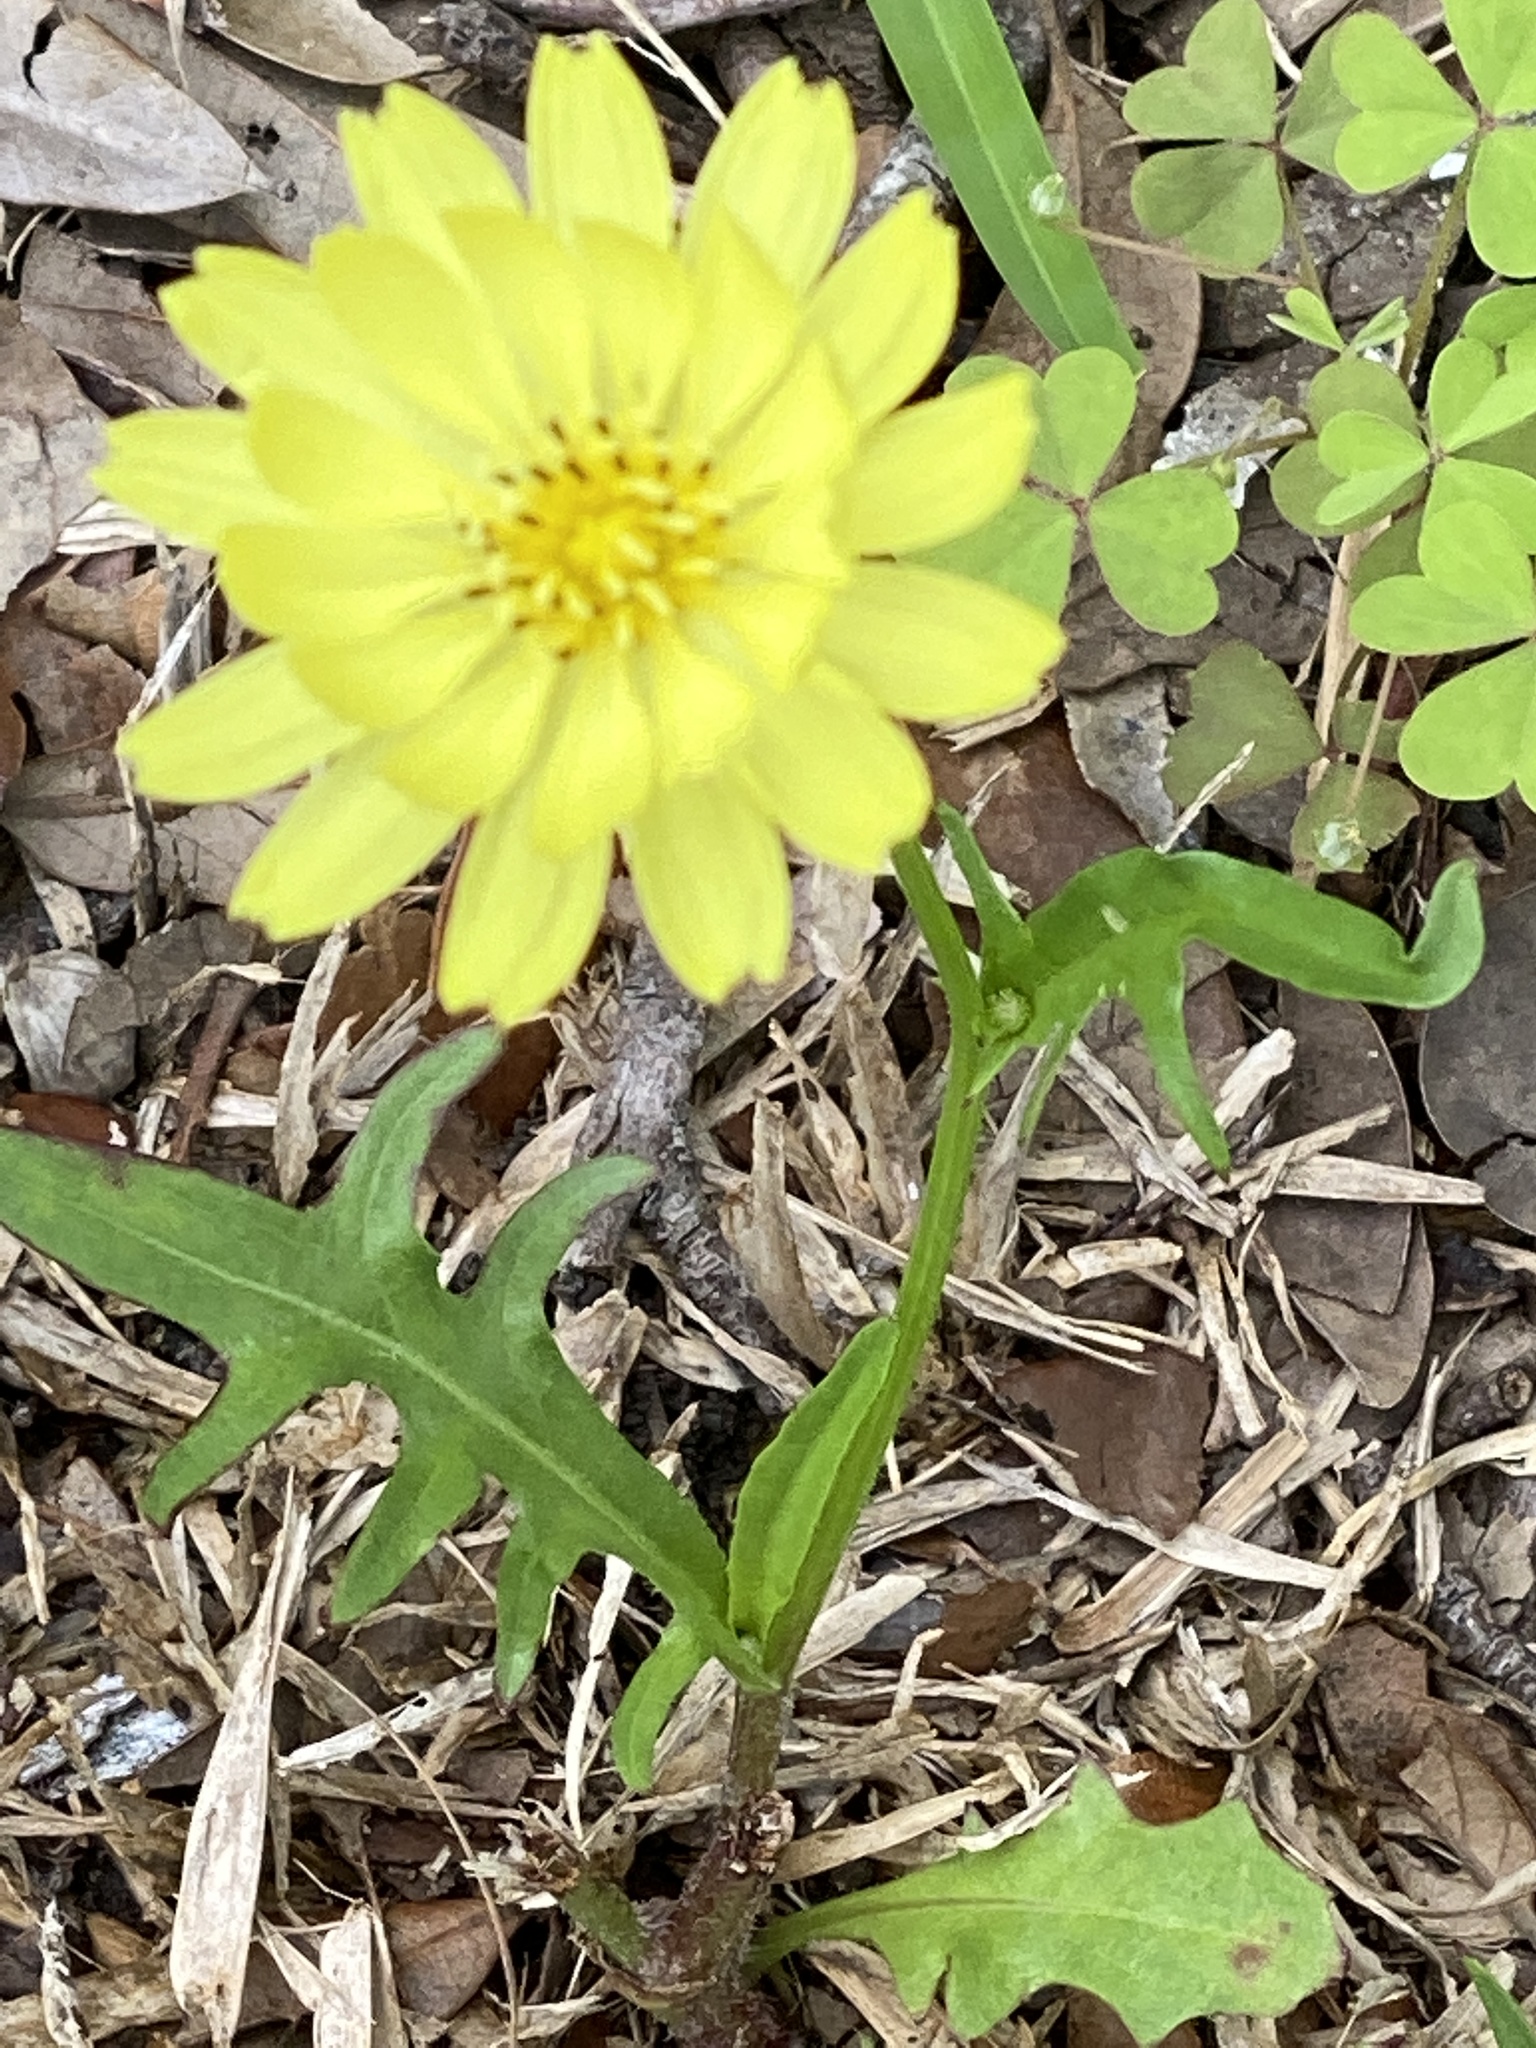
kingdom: Plantae
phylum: Tracheophyta
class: Magnoliopsida
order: Asterales
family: Asteraceae
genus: Pyrrhopappus
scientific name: Pyrrhopappus pauciflorus
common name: Texas false dandelion
